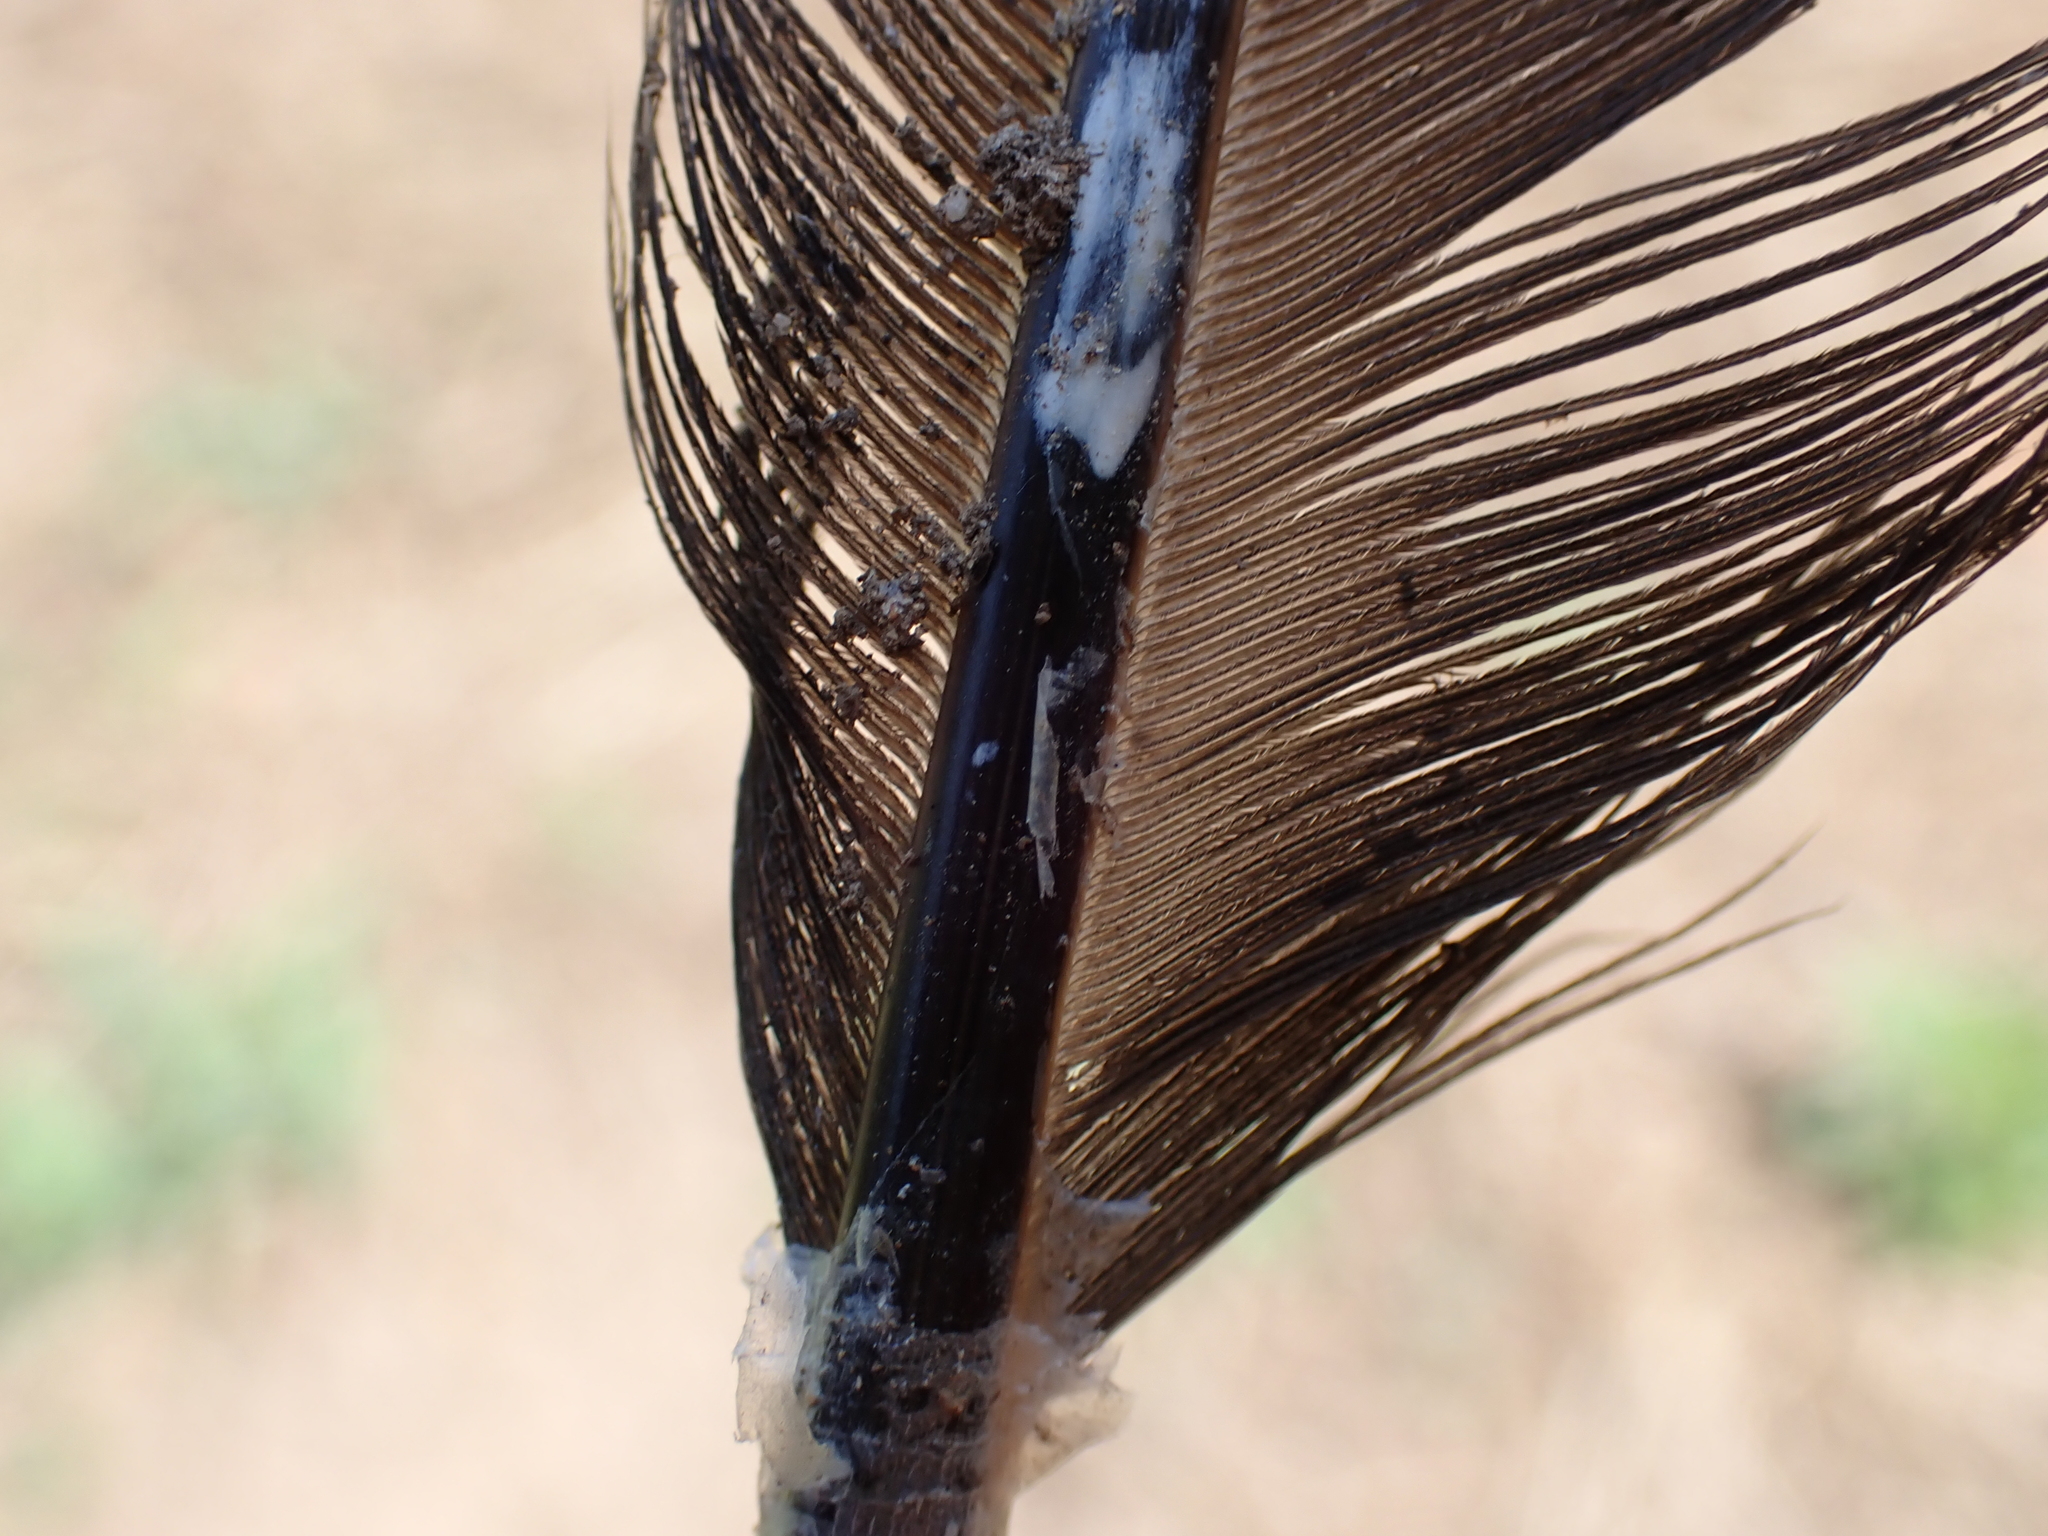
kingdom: Animalia
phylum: Chordata
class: Aves
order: Galliformes
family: Phasianidae
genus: Gallus
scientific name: Gallus gallus
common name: Red junglefowl
